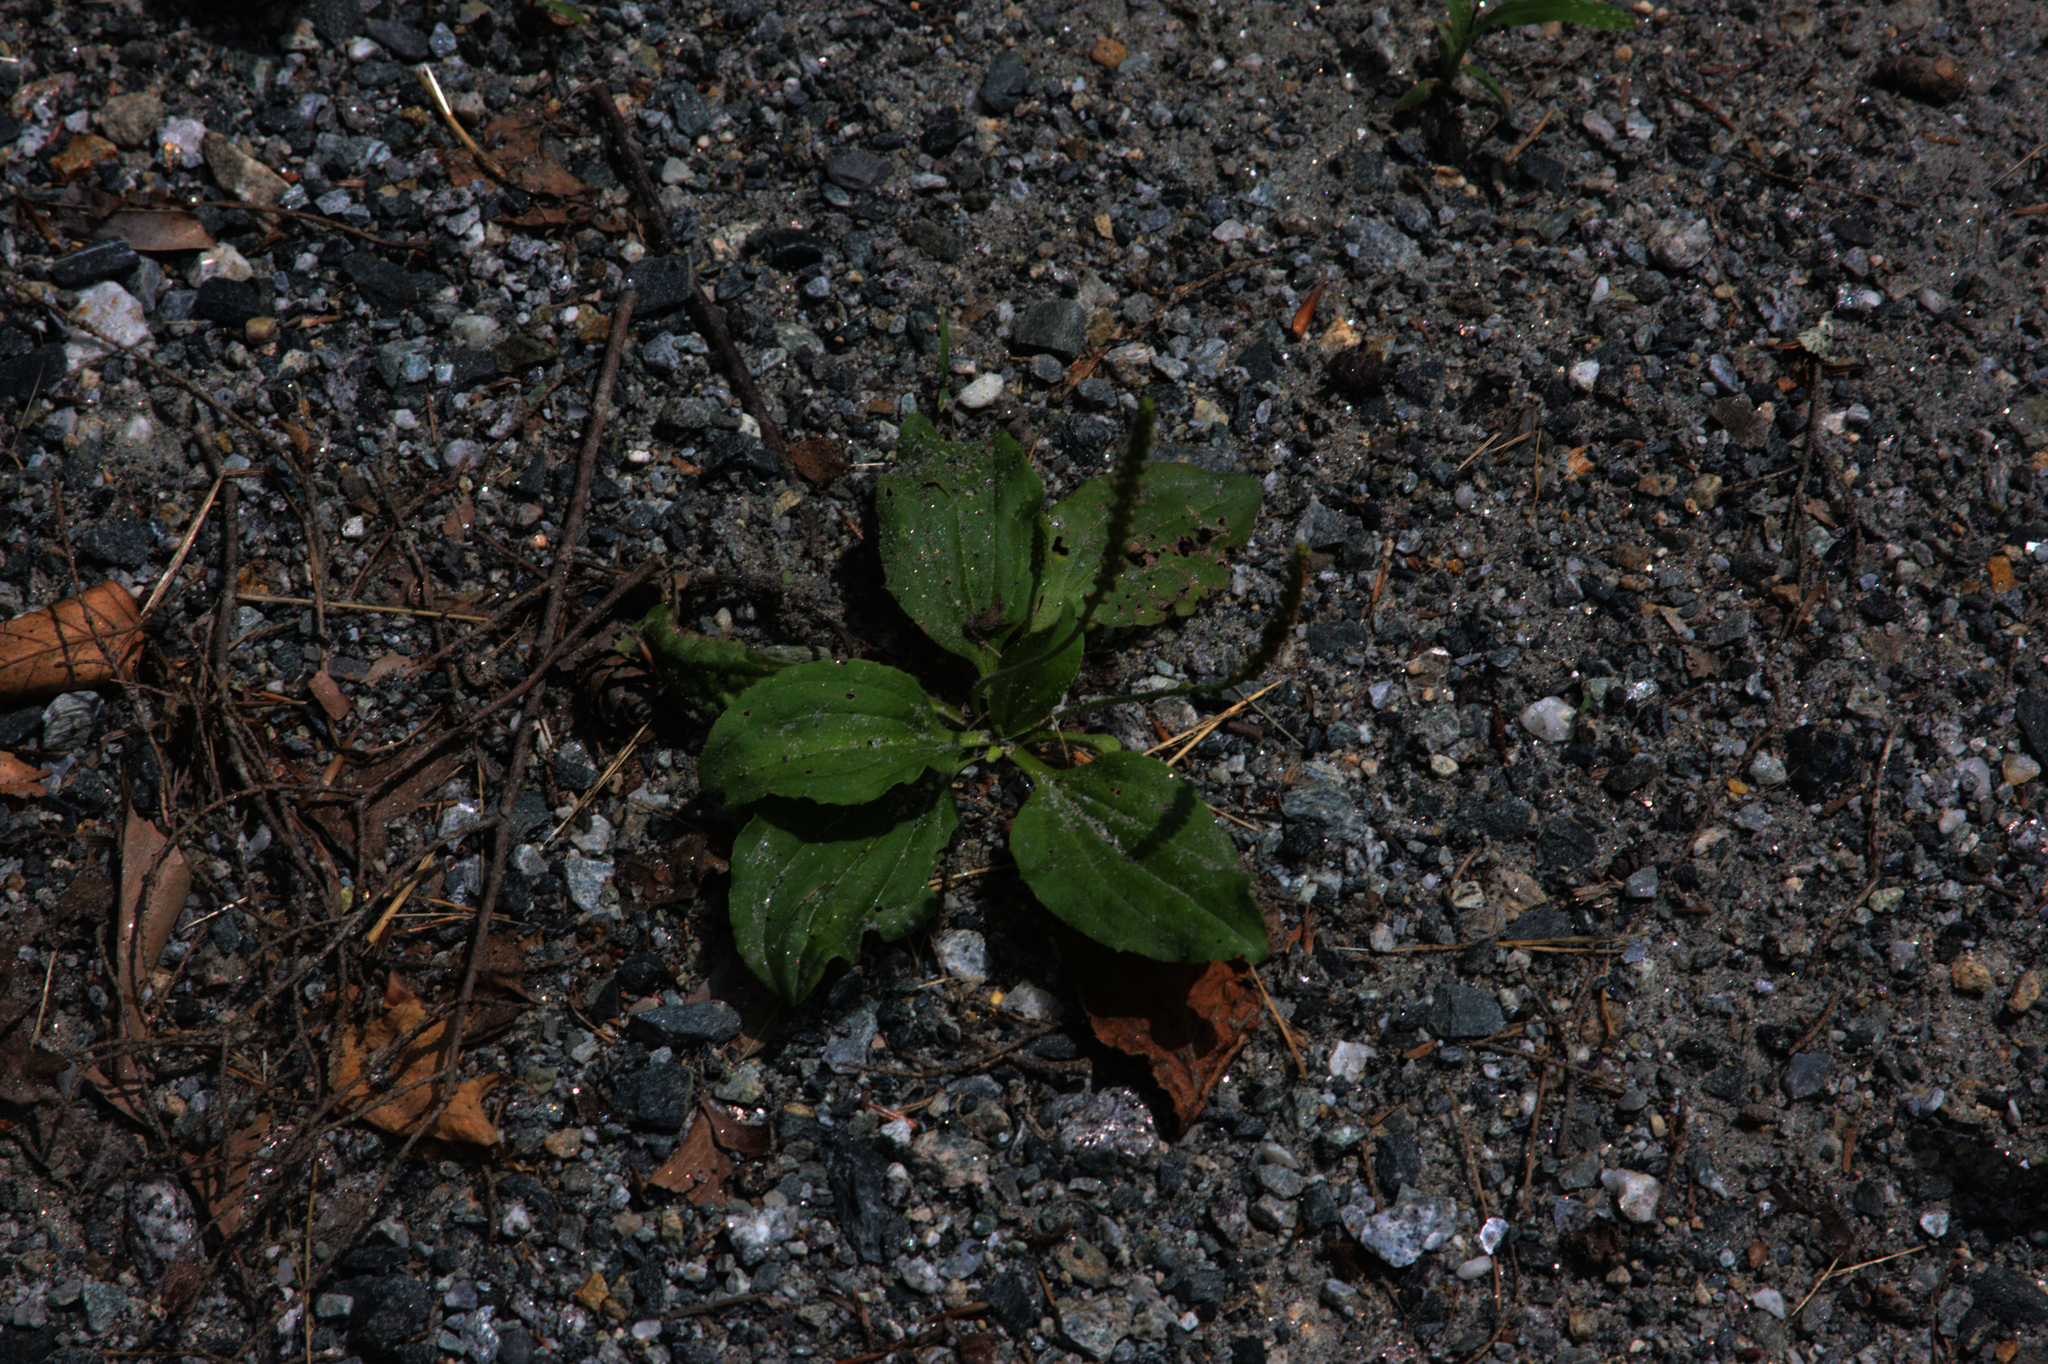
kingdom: Plantae
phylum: Tracheophyta
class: Magnoliopsida
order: Lamiales
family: Plantaginaceae
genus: Plantago
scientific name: Plantago major
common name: Common plantain
